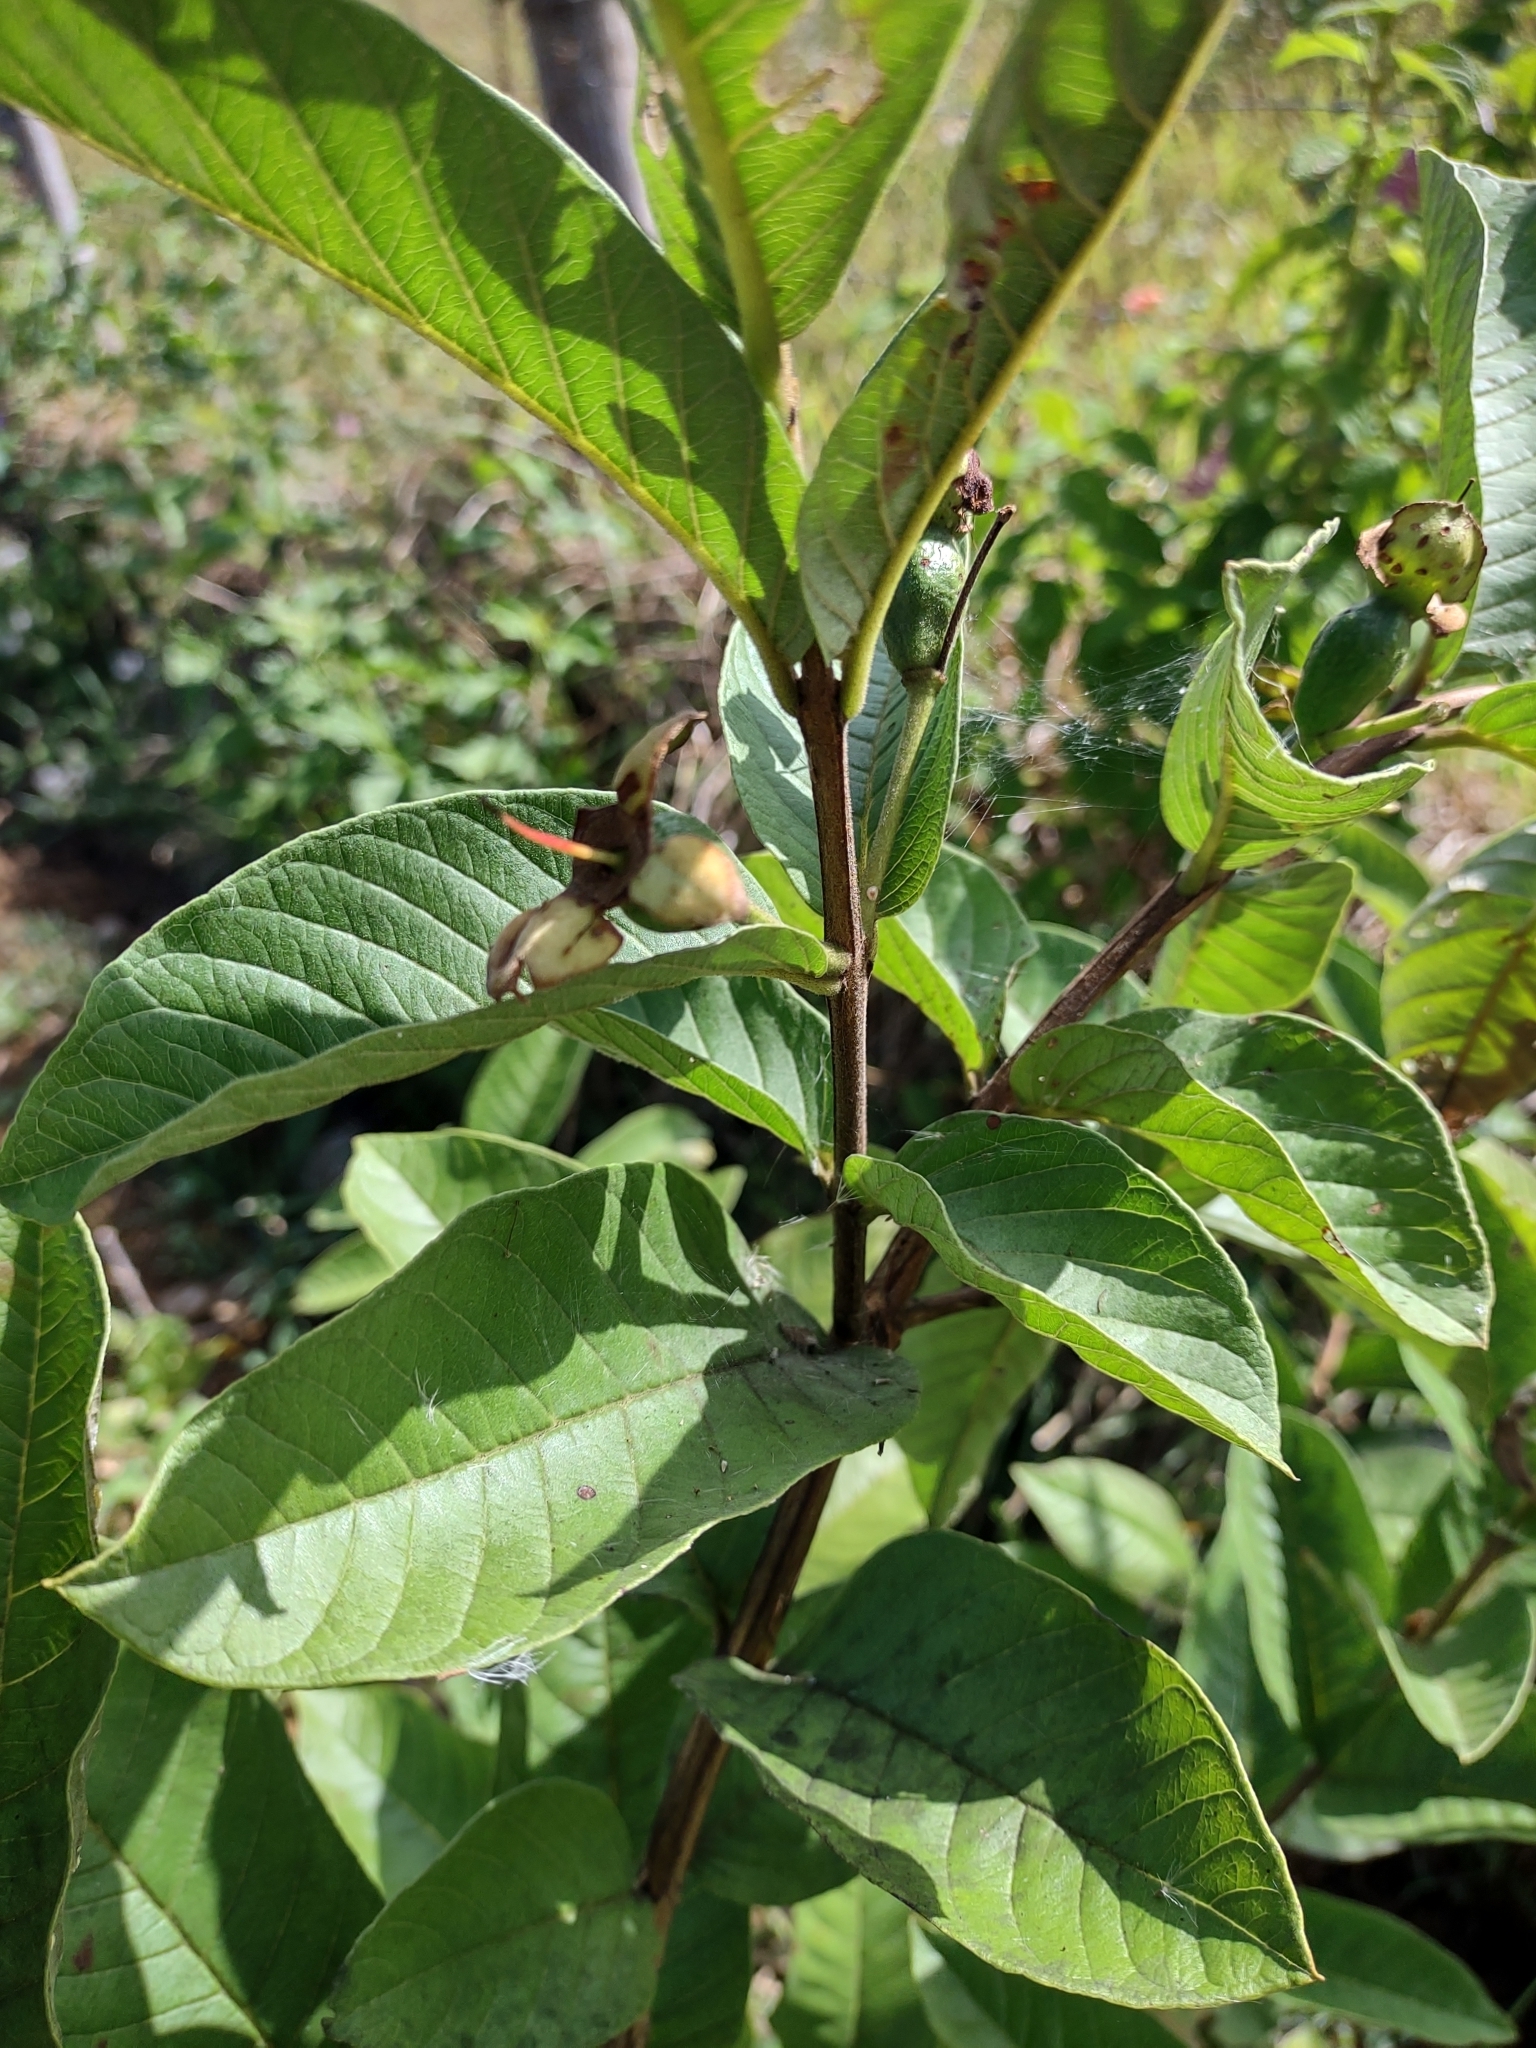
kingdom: Plantae
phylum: Tracheophyta
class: Magnoliopsida
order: Myrtales
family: Myrtaceae
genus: Psidium
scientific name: Psidium guajava
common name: Guava
